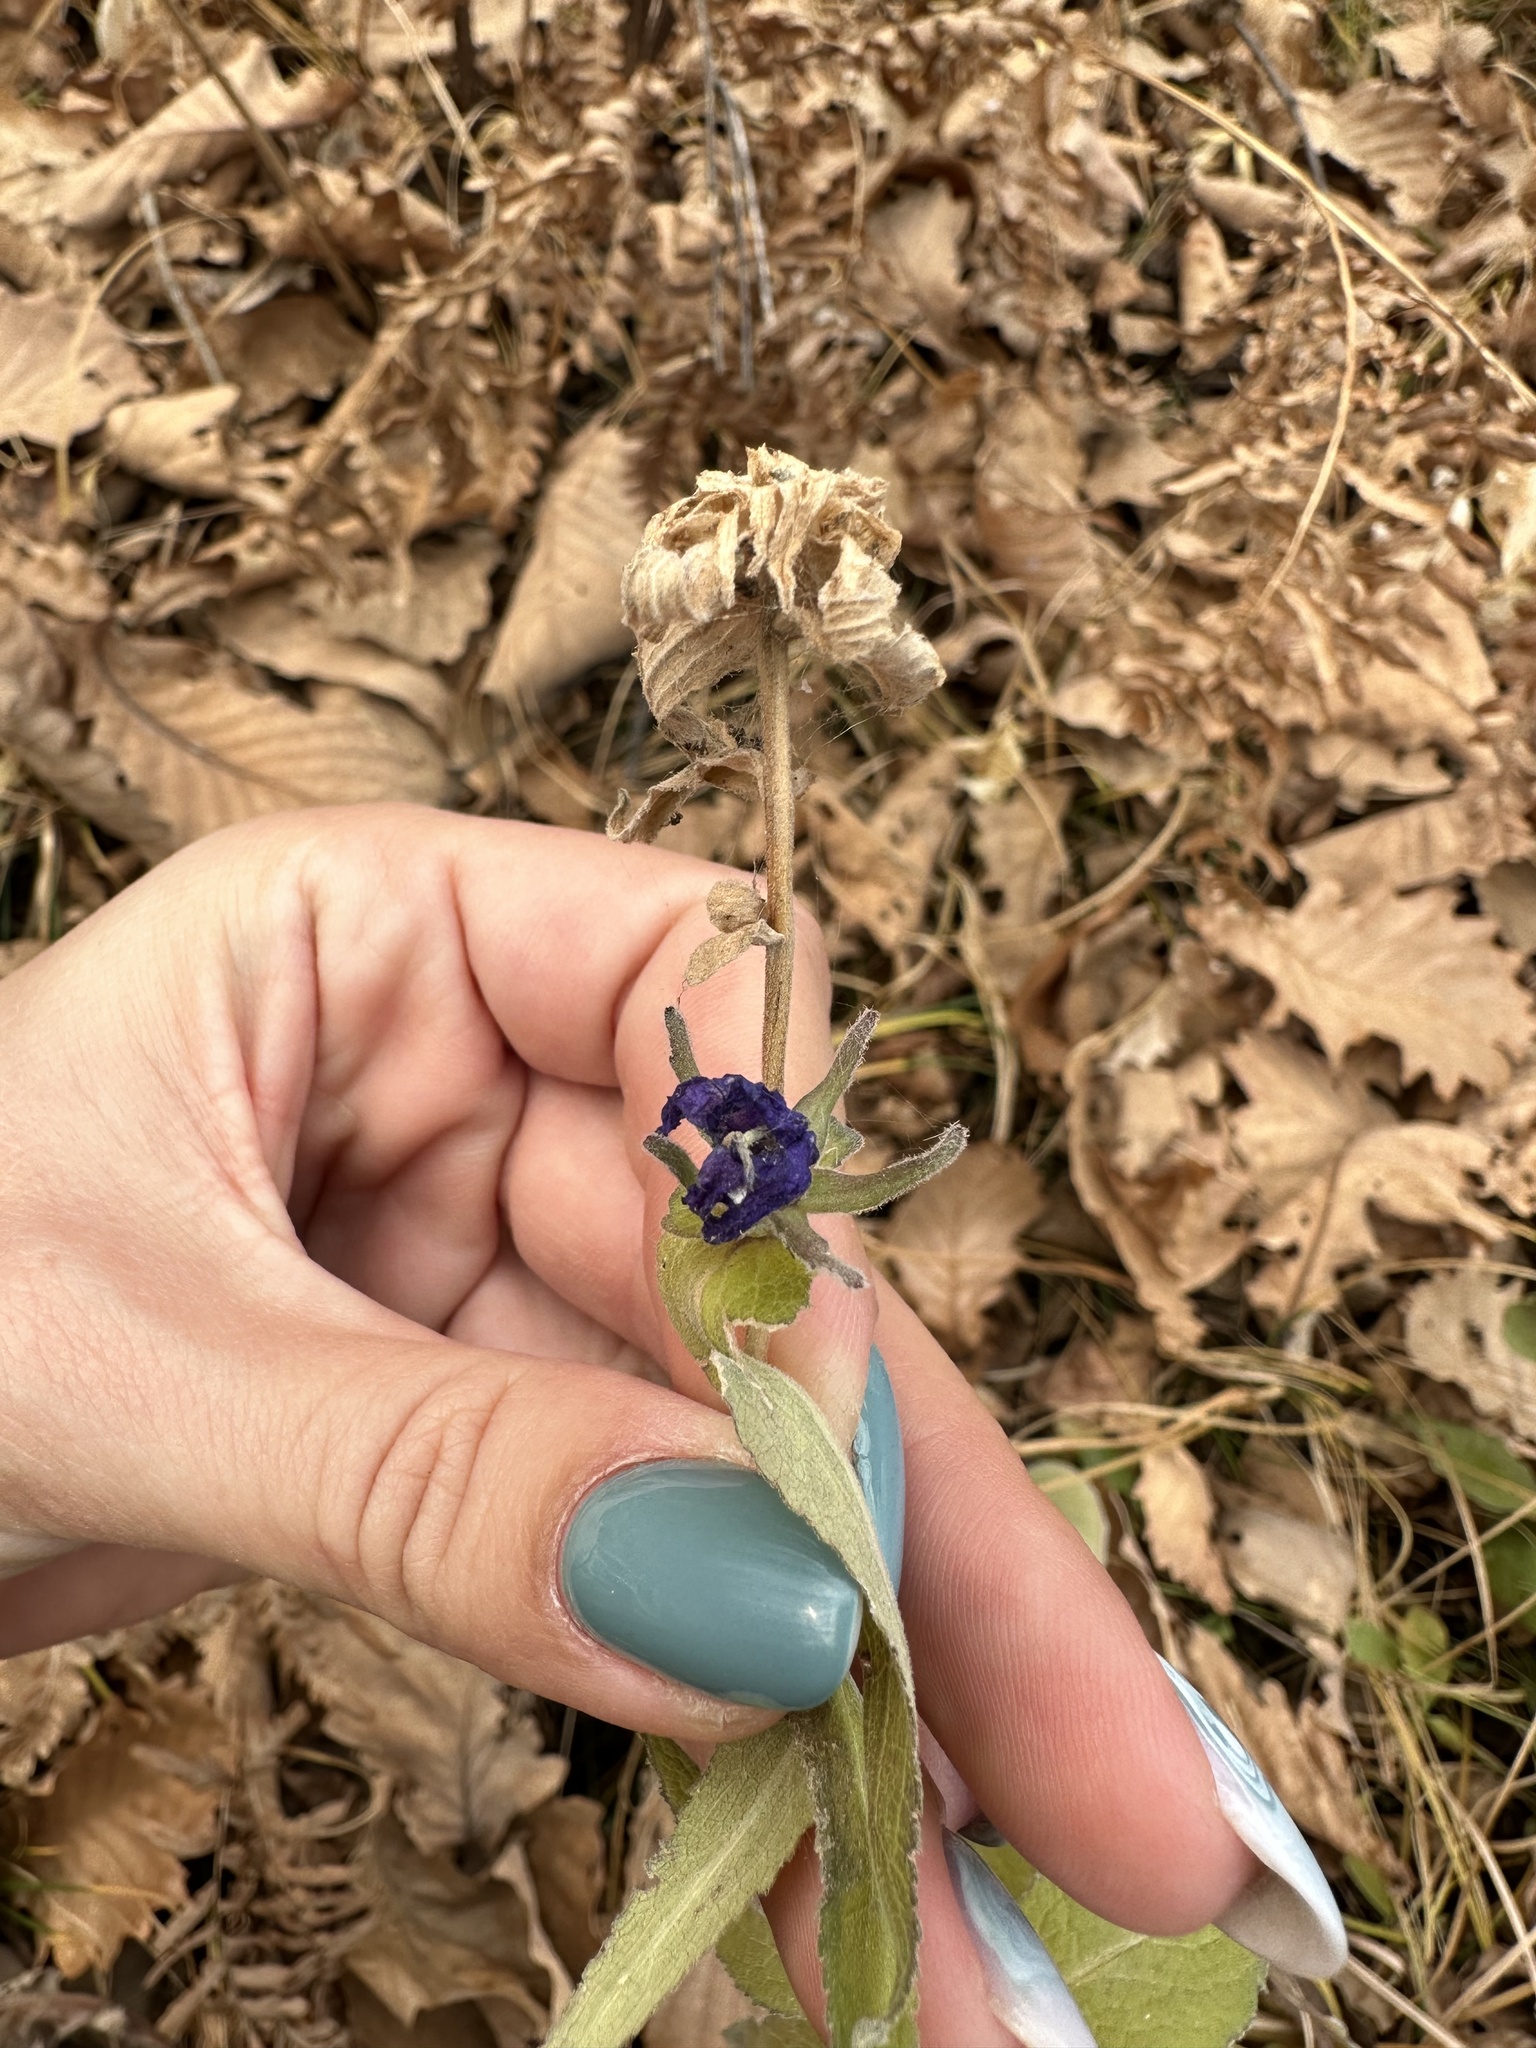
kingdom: Plantae
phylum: Tracheophyta
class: Magnoliopsida
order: Asterales
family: Campanulaceae
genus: Campanula
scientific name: Campanula glomerata
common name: Clustered bellflower
